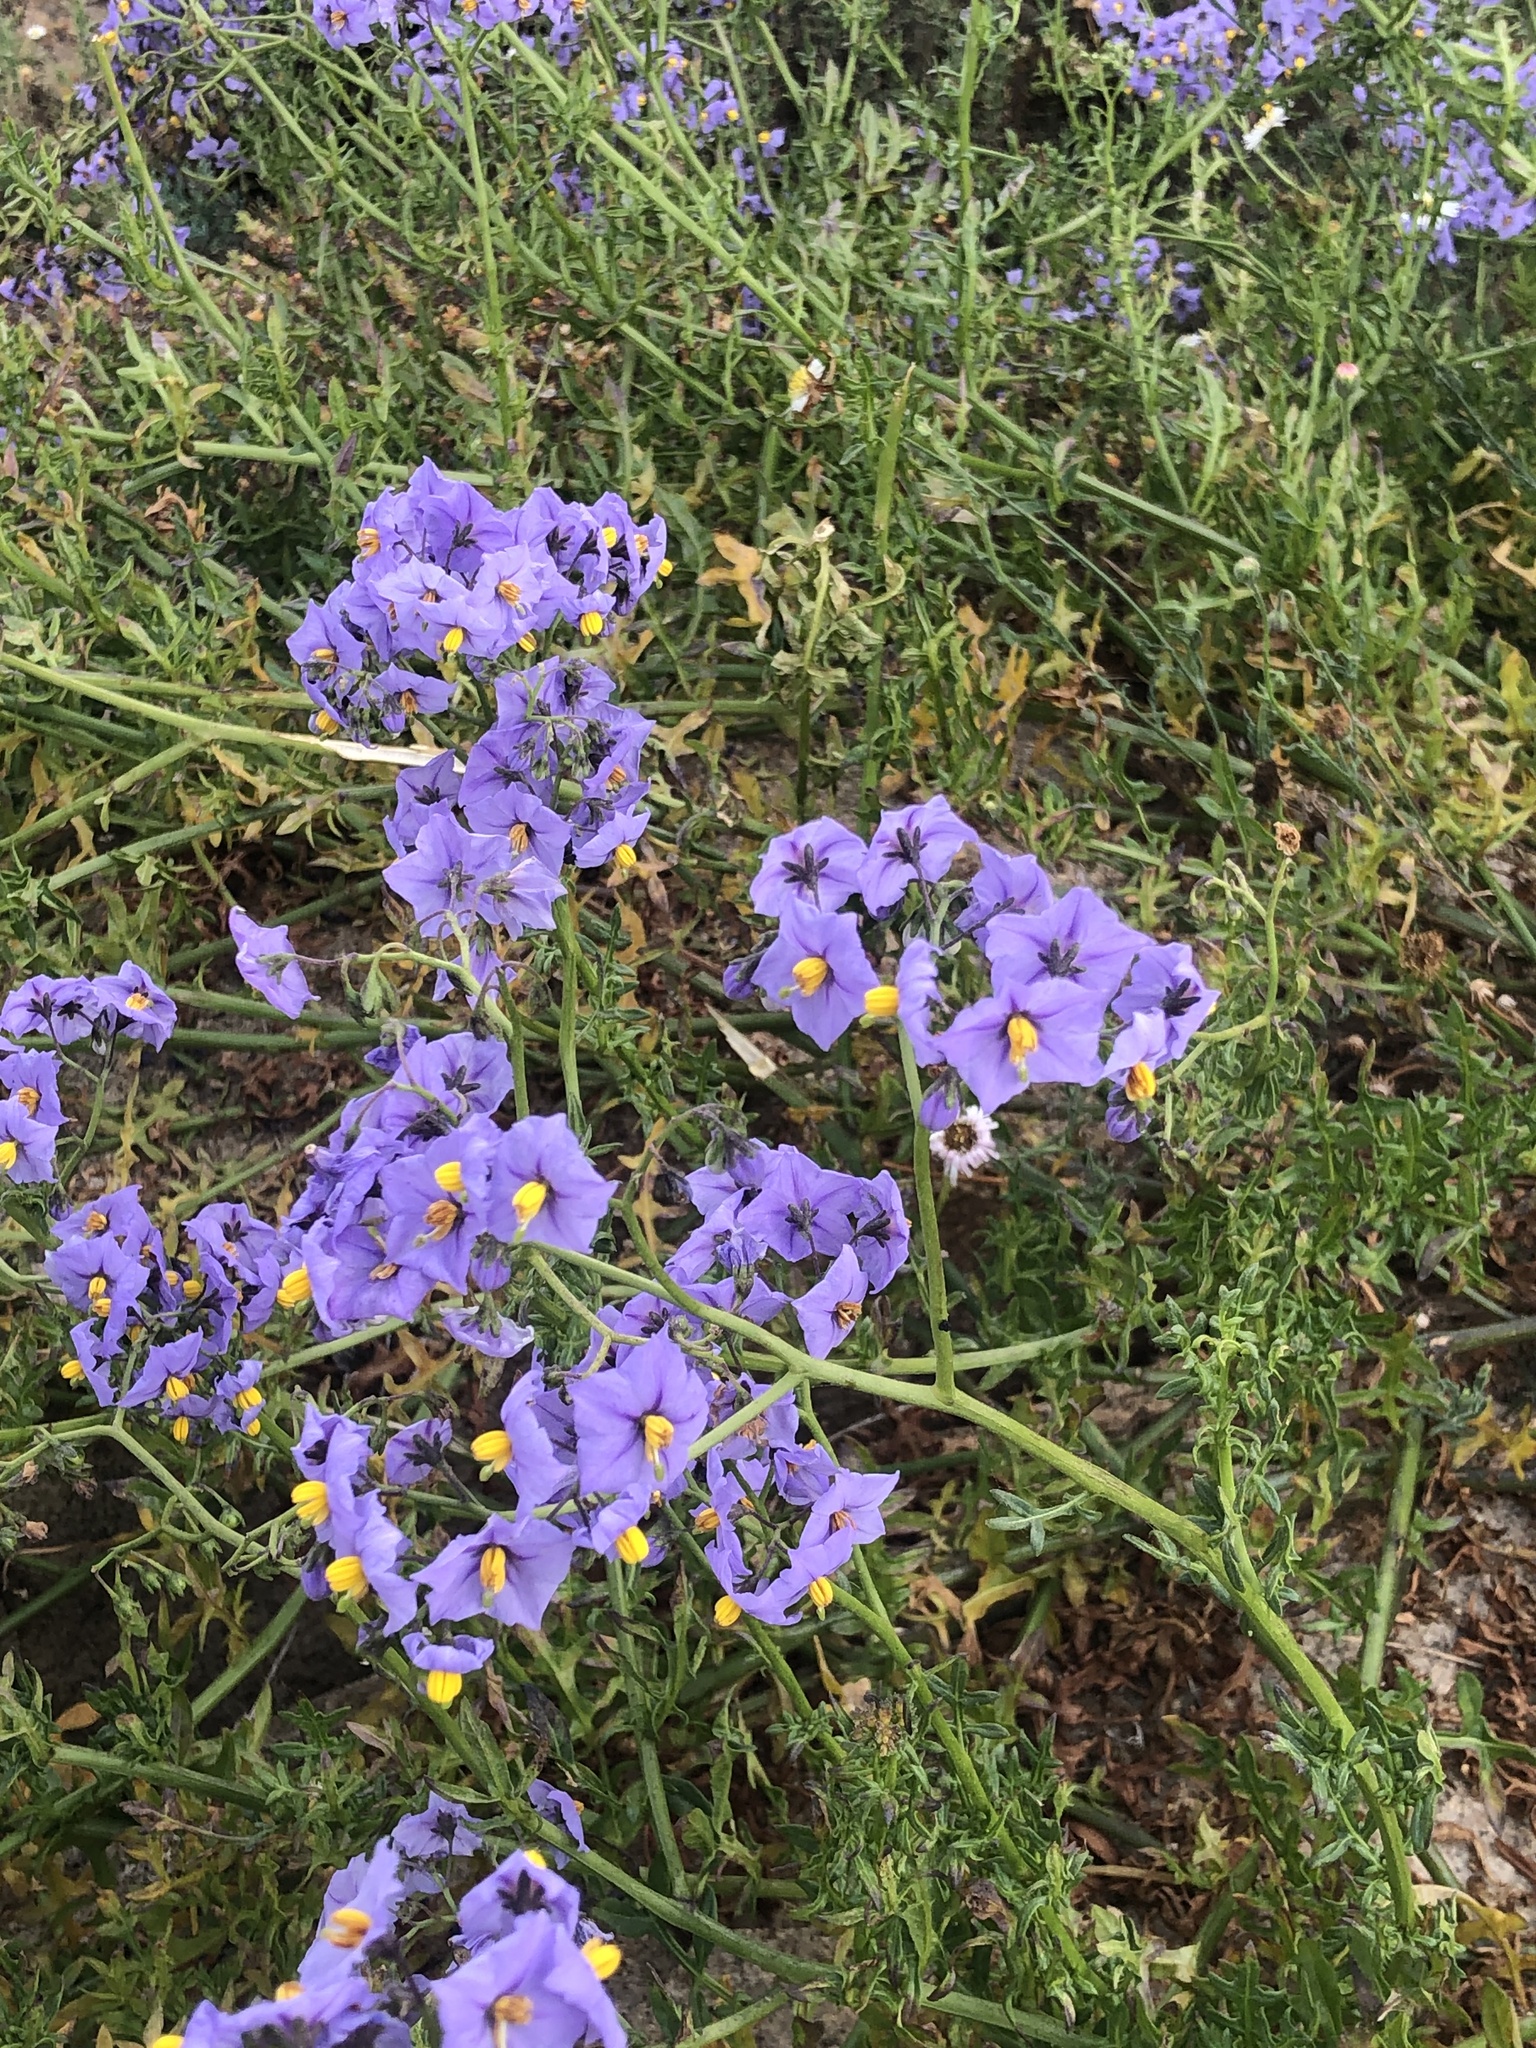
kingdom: Plantae
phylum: Tracheophyta
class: Magnoliopsida
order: Solanales
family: Solanaceae
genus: Solanum
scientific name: Solanum pinnatum
